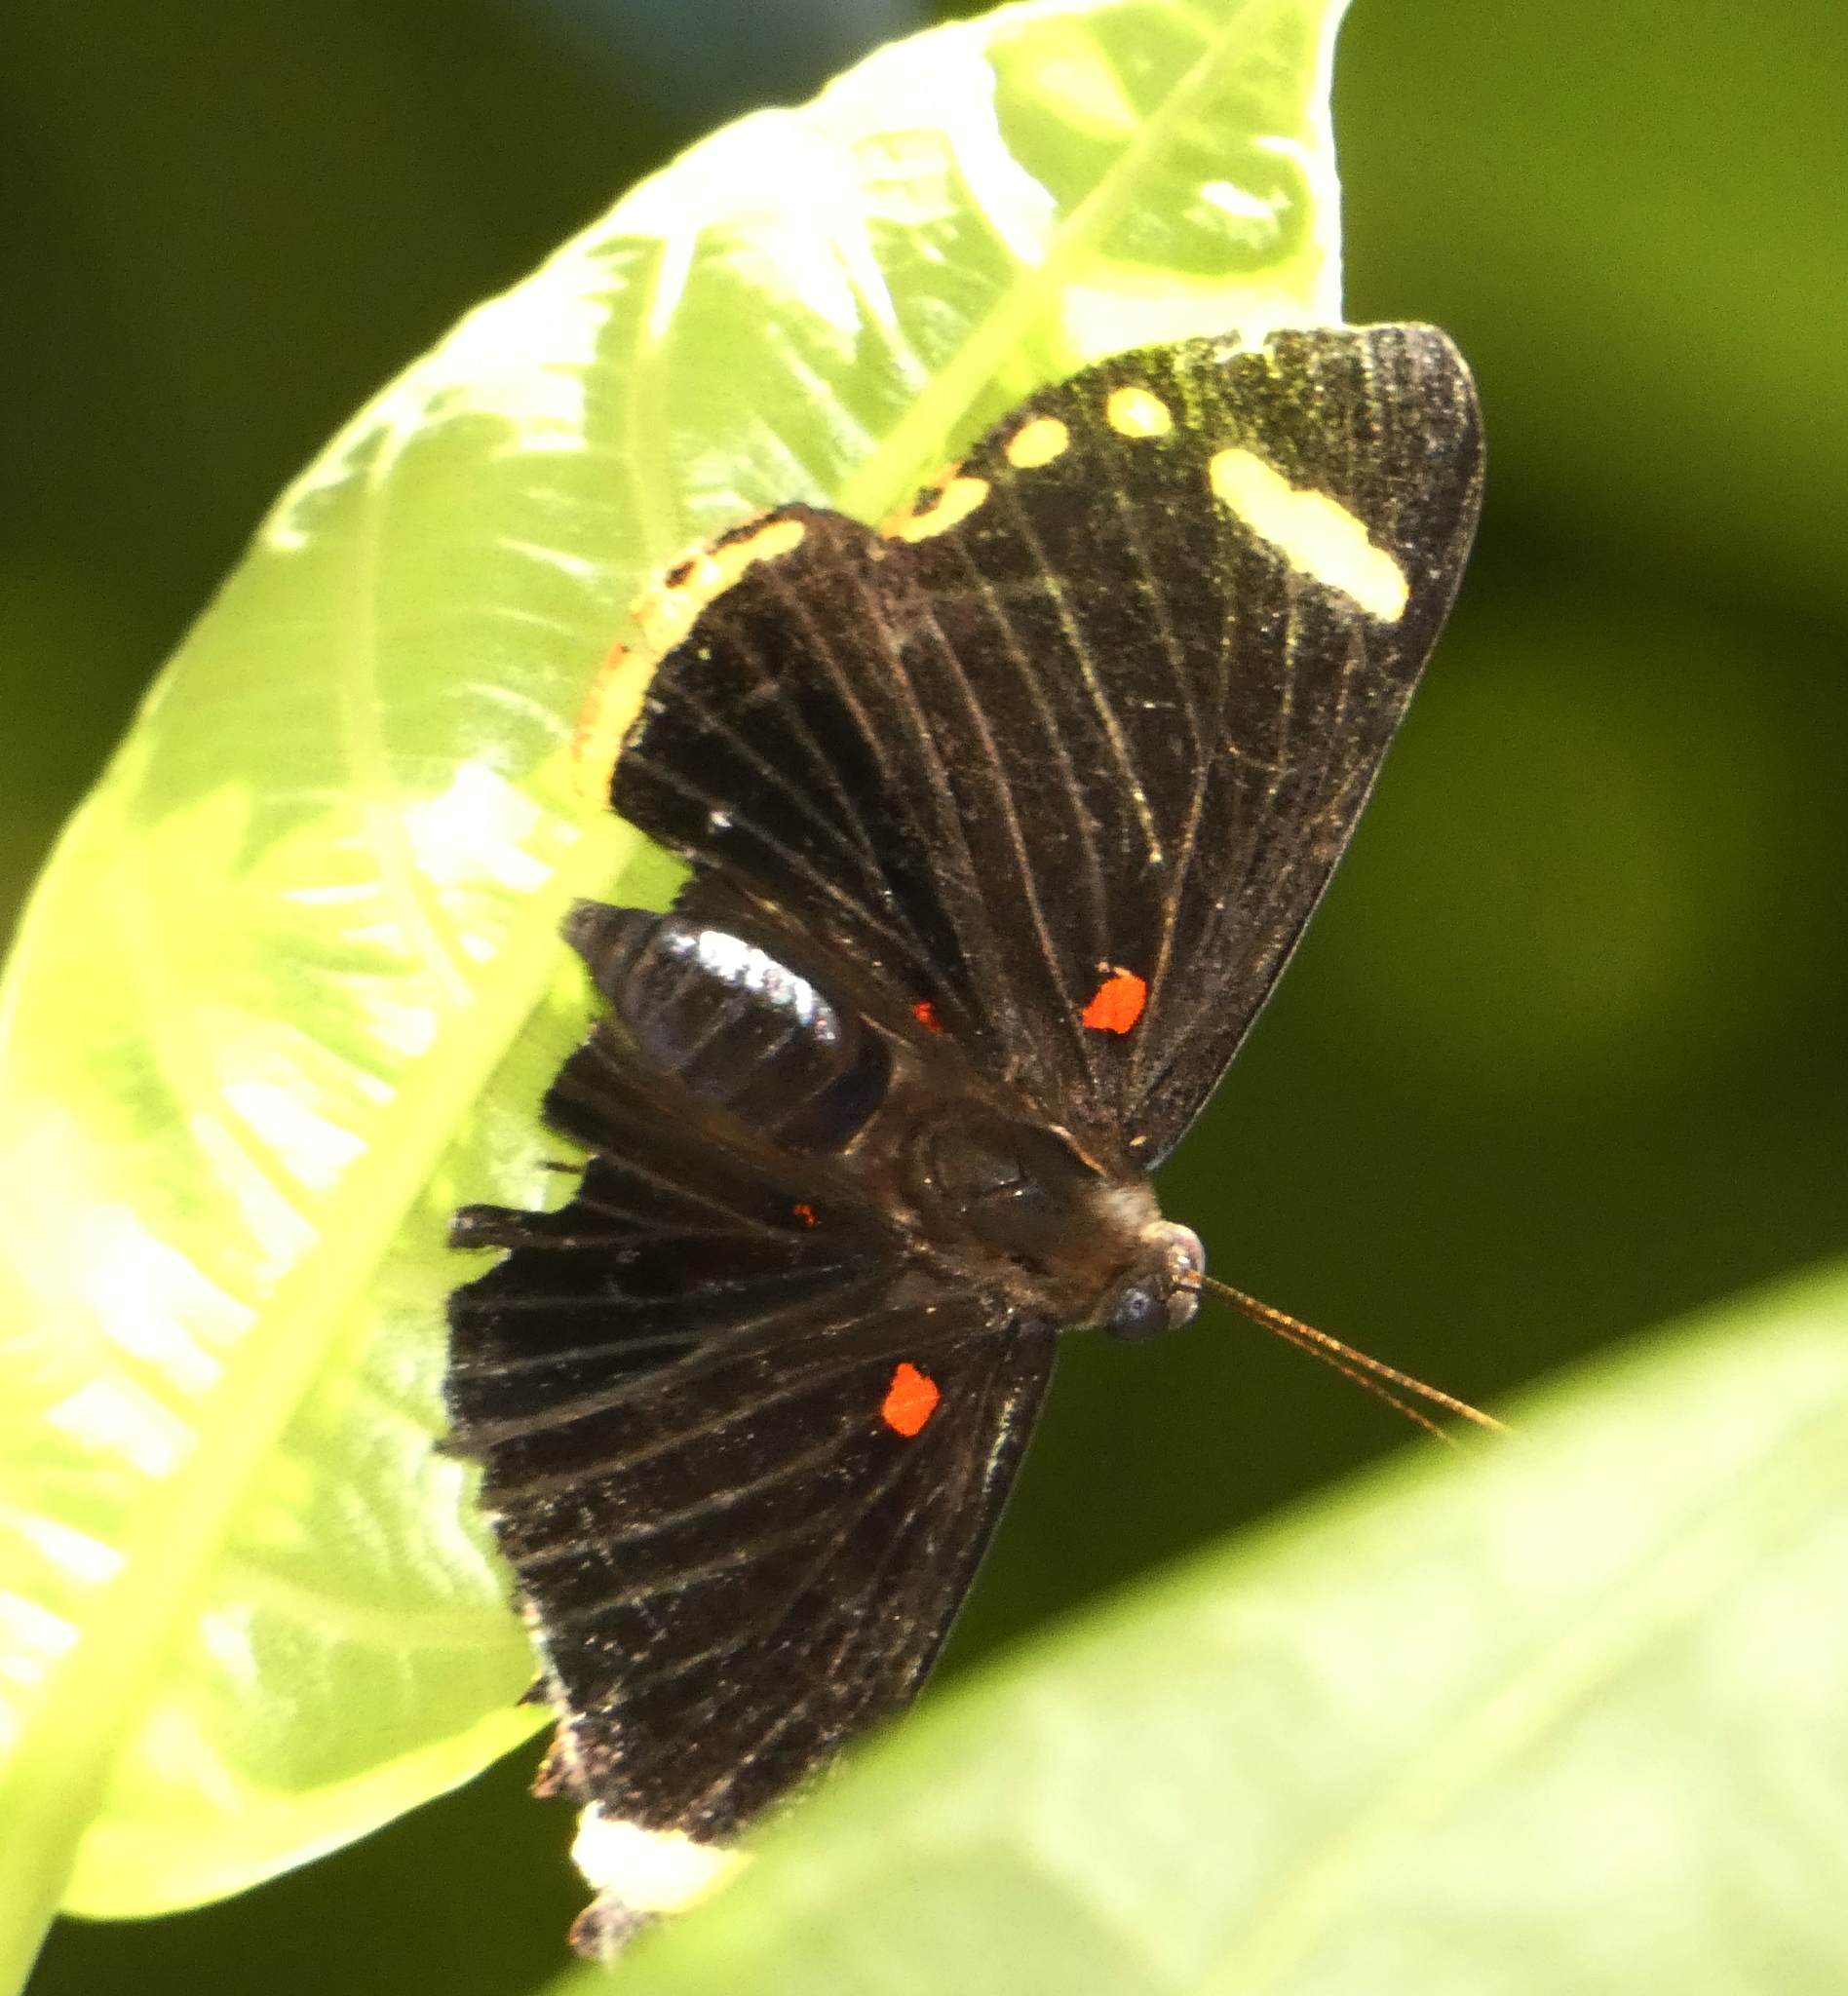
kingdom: Animalia
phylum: Arthropoda
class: Insecta
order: Lepidoptera
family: Lycaenidae
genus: Melanis
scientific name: Melanis xenia
